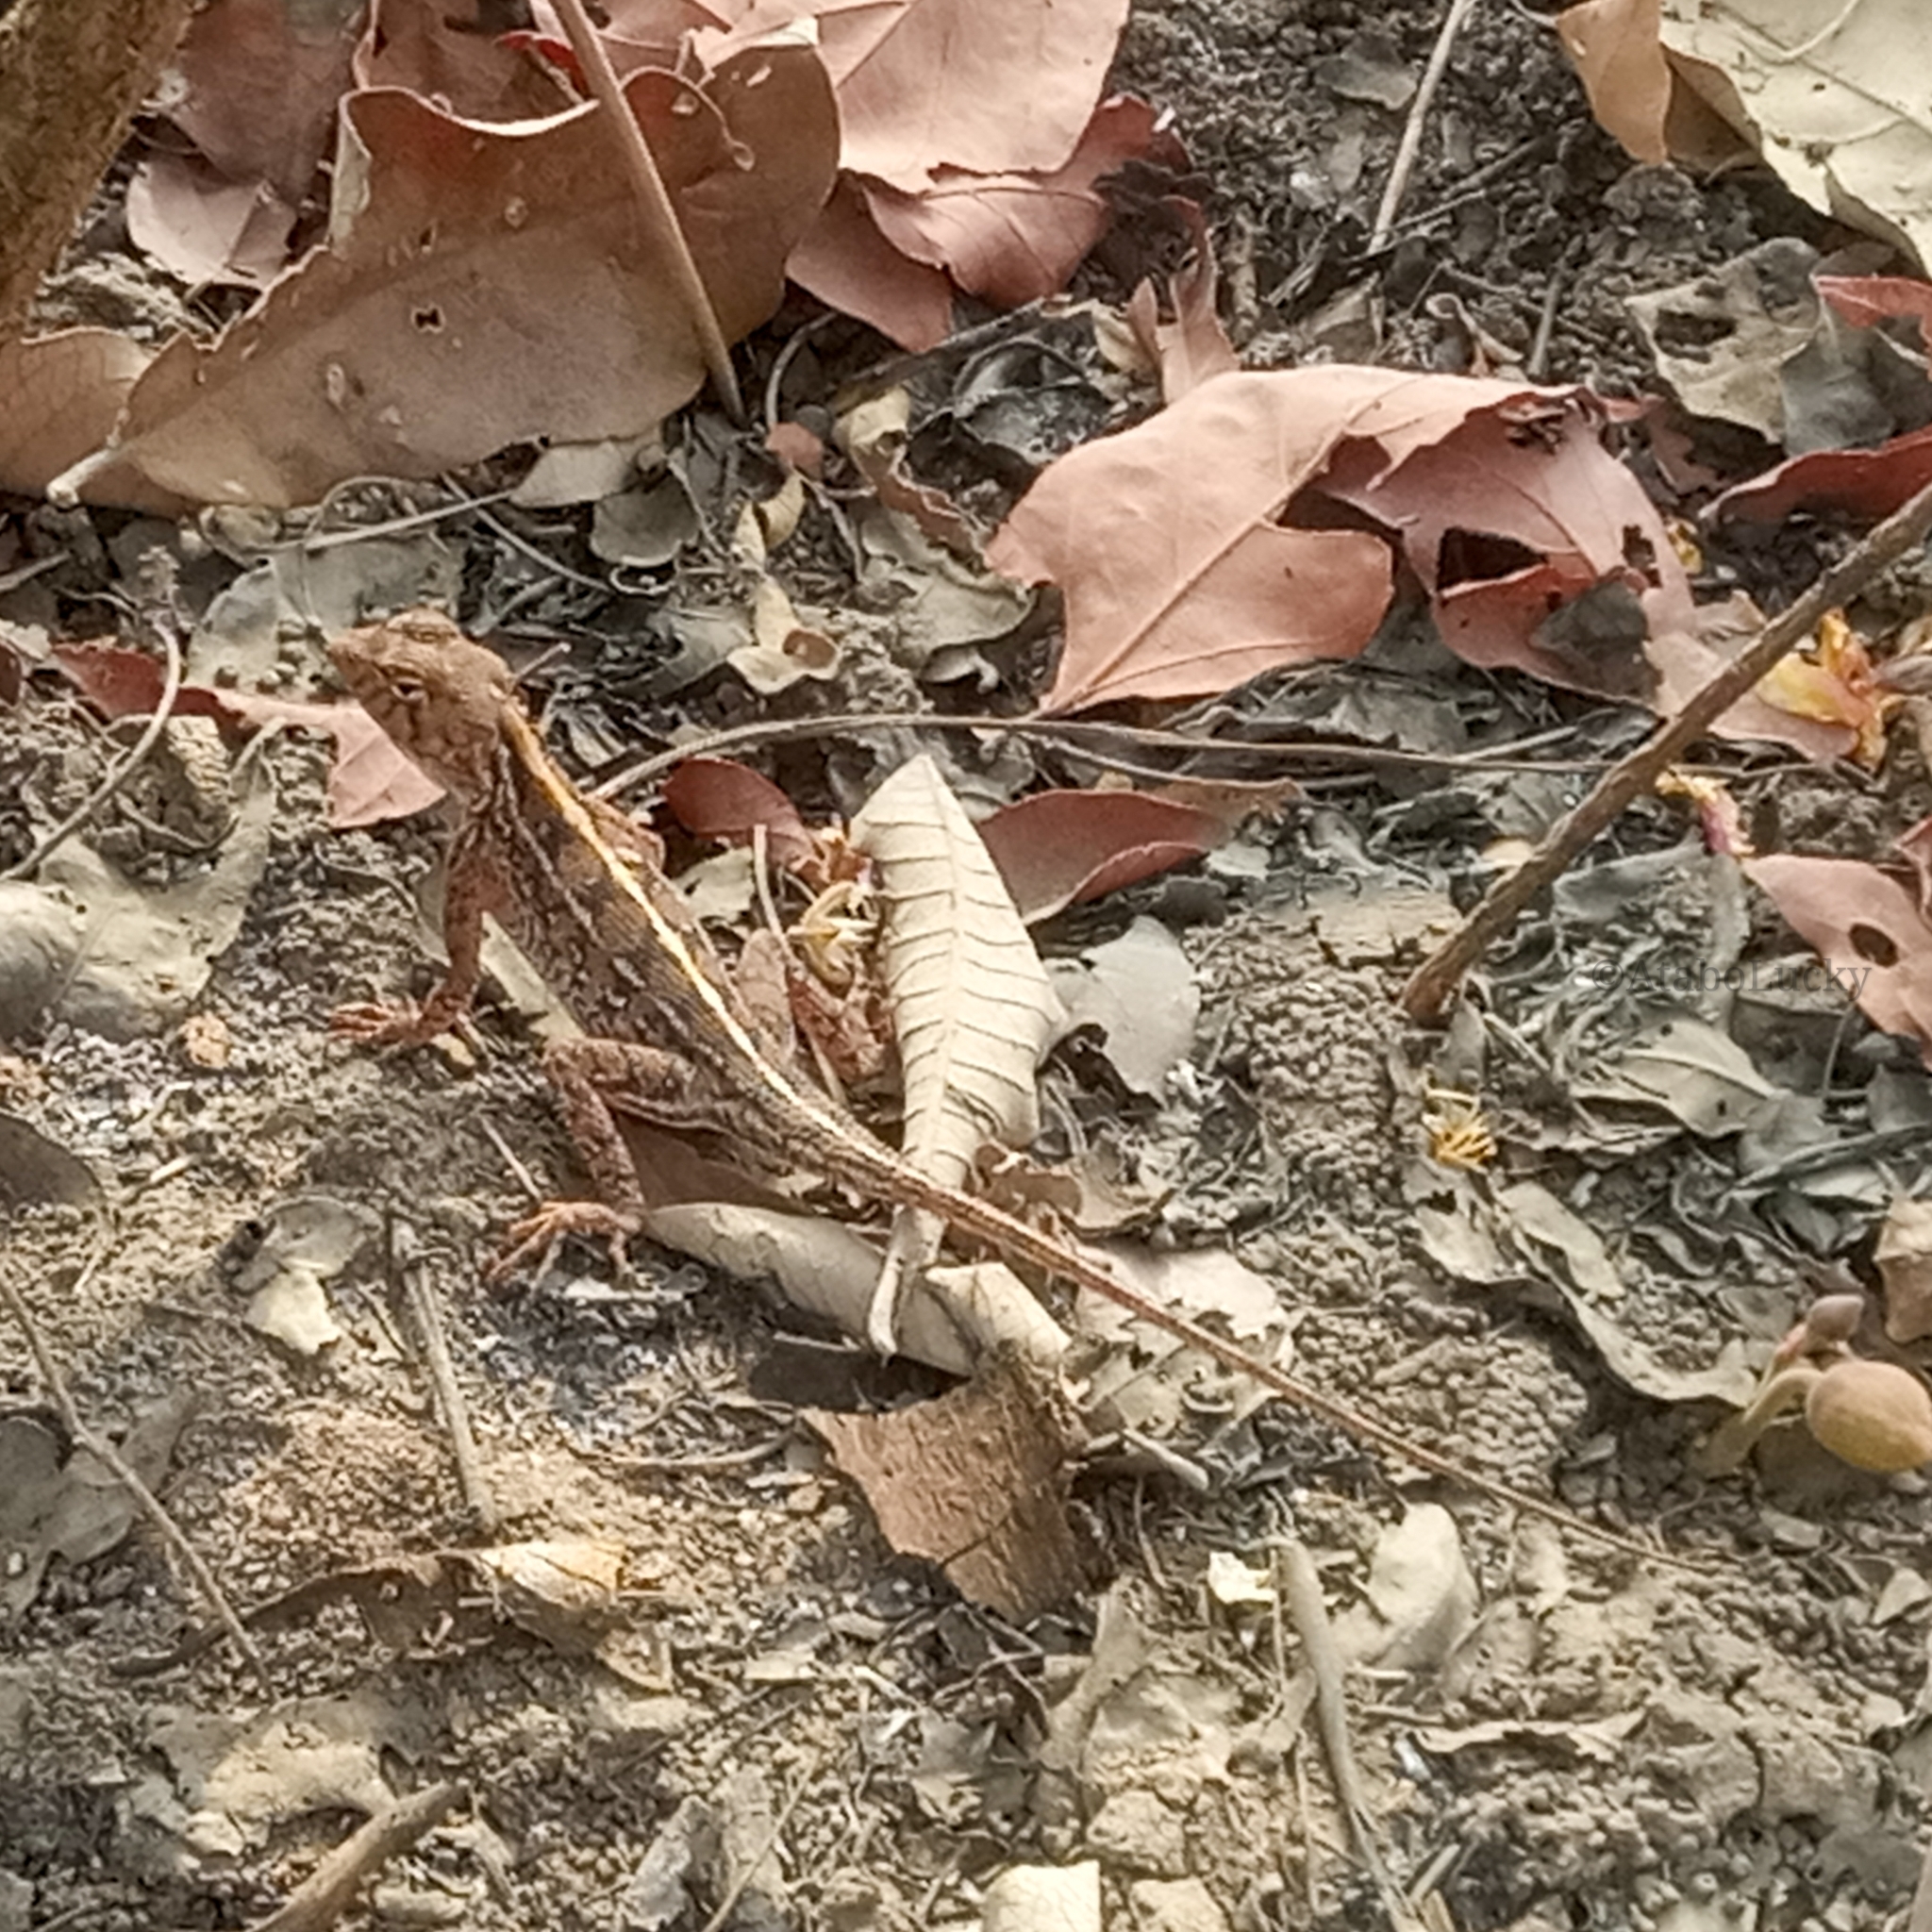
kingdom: Animalia
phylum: Chordata
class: Squamata
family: Agamidae
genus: Agama
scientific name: Agama sankaranica
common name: Senegal agama
